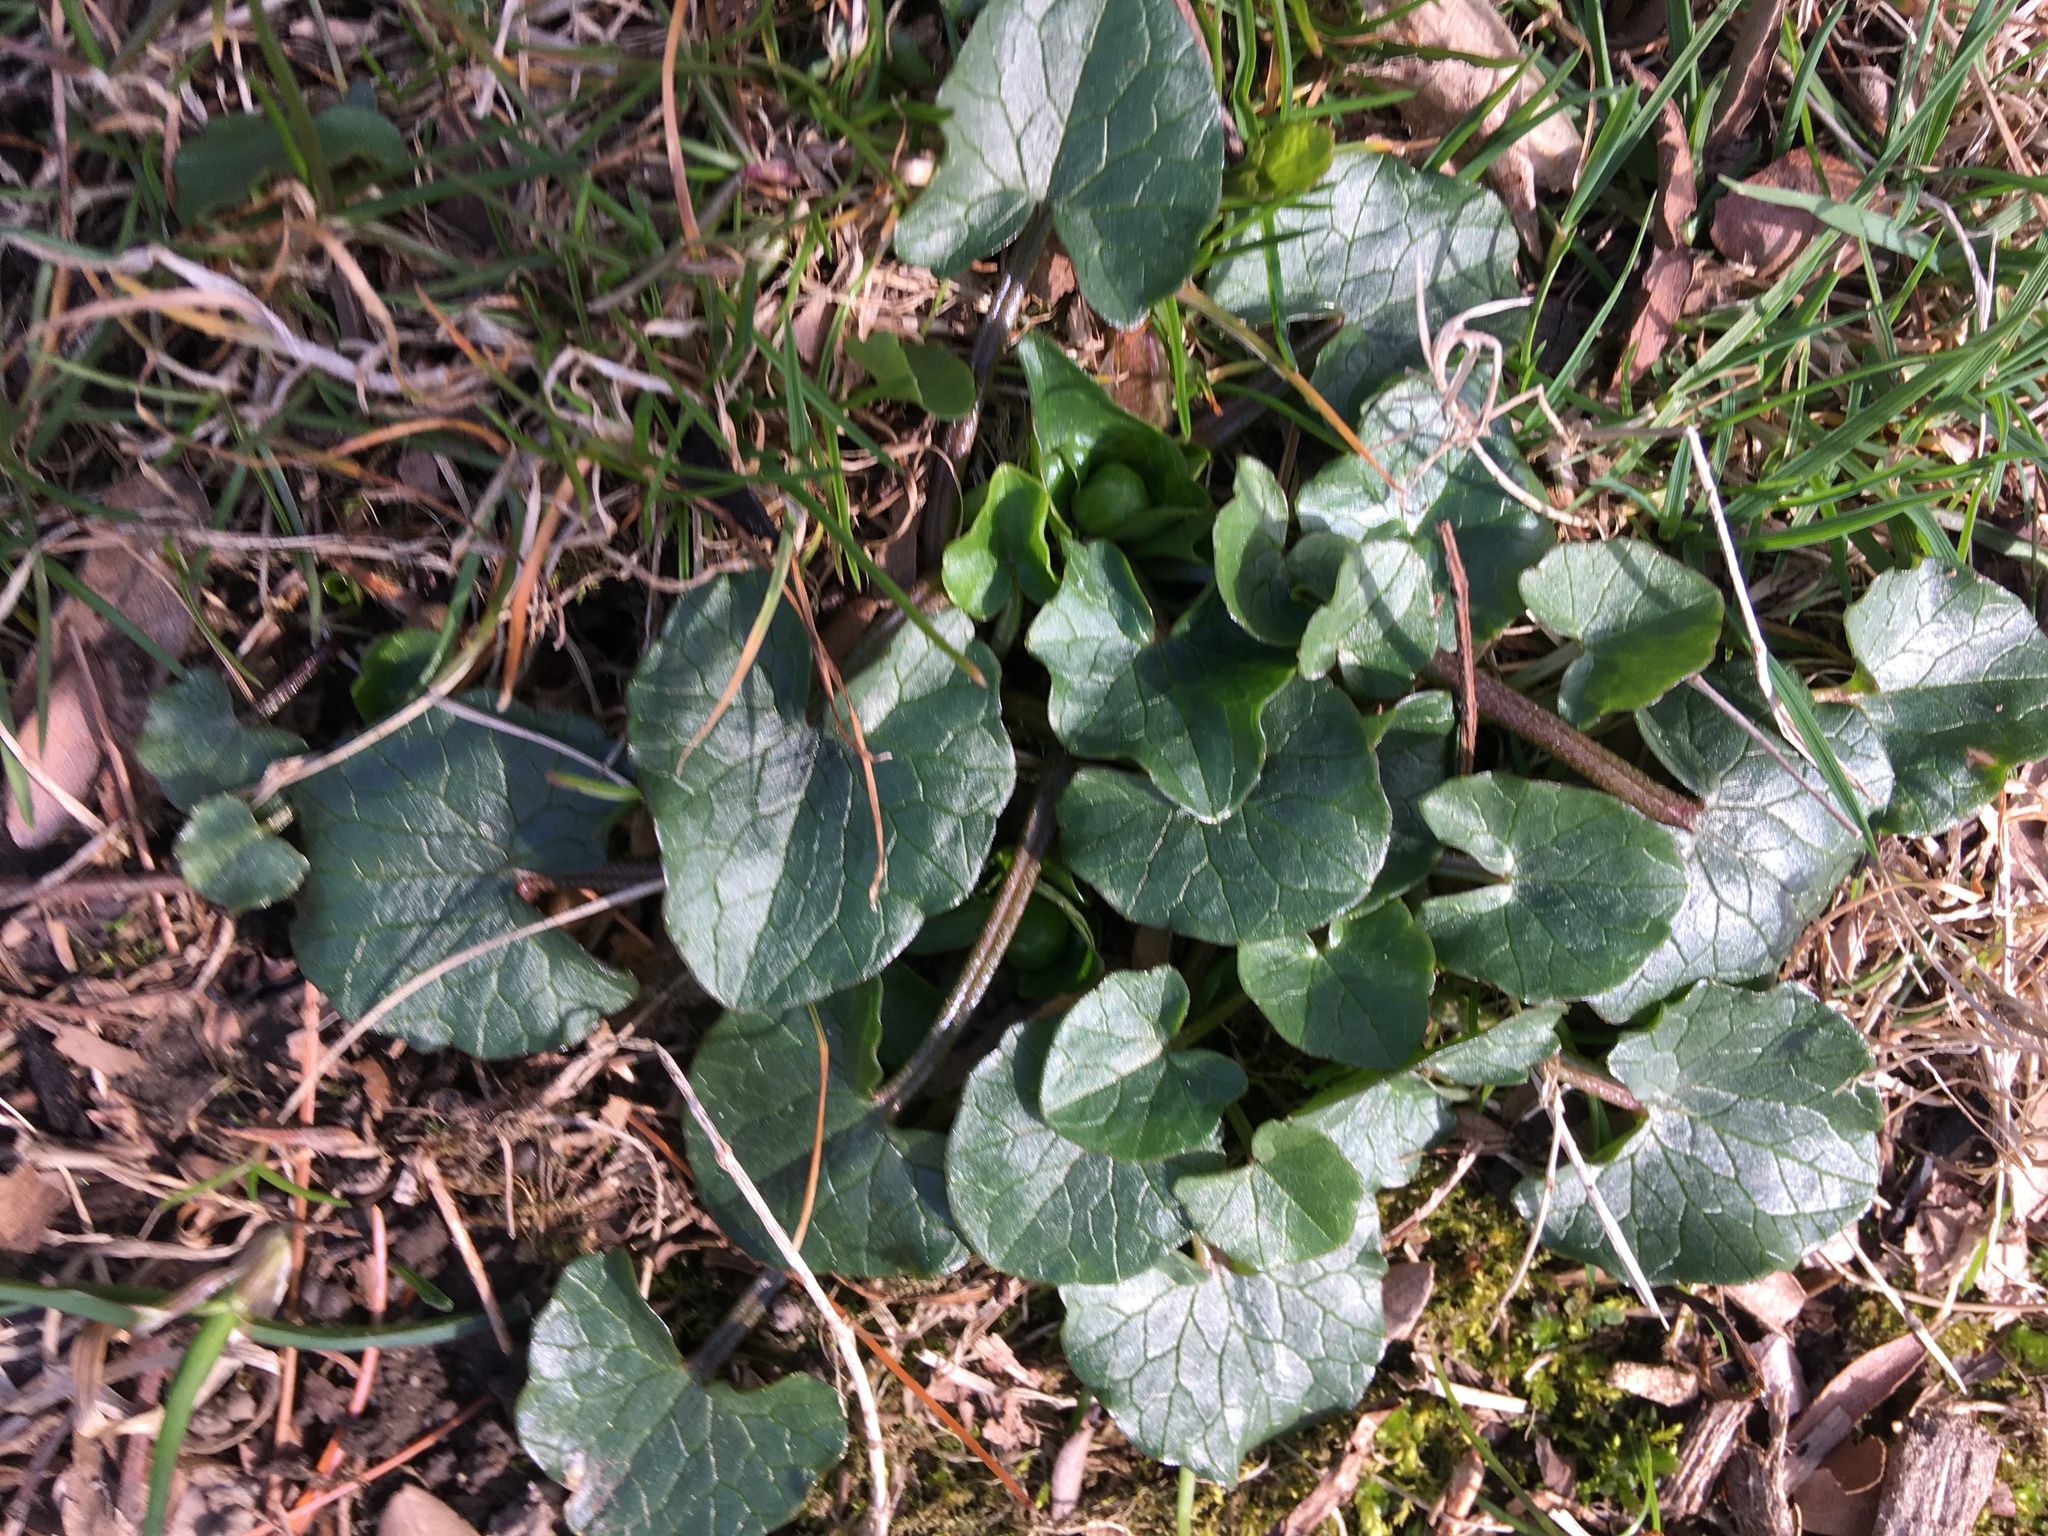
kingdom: Plantae
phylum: Tracheophyta
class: Magnoliopsida
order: Ranunculales
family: Ranunculaceae
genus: Ficaria
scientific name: Ficaria verna
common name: Lesser celandine
